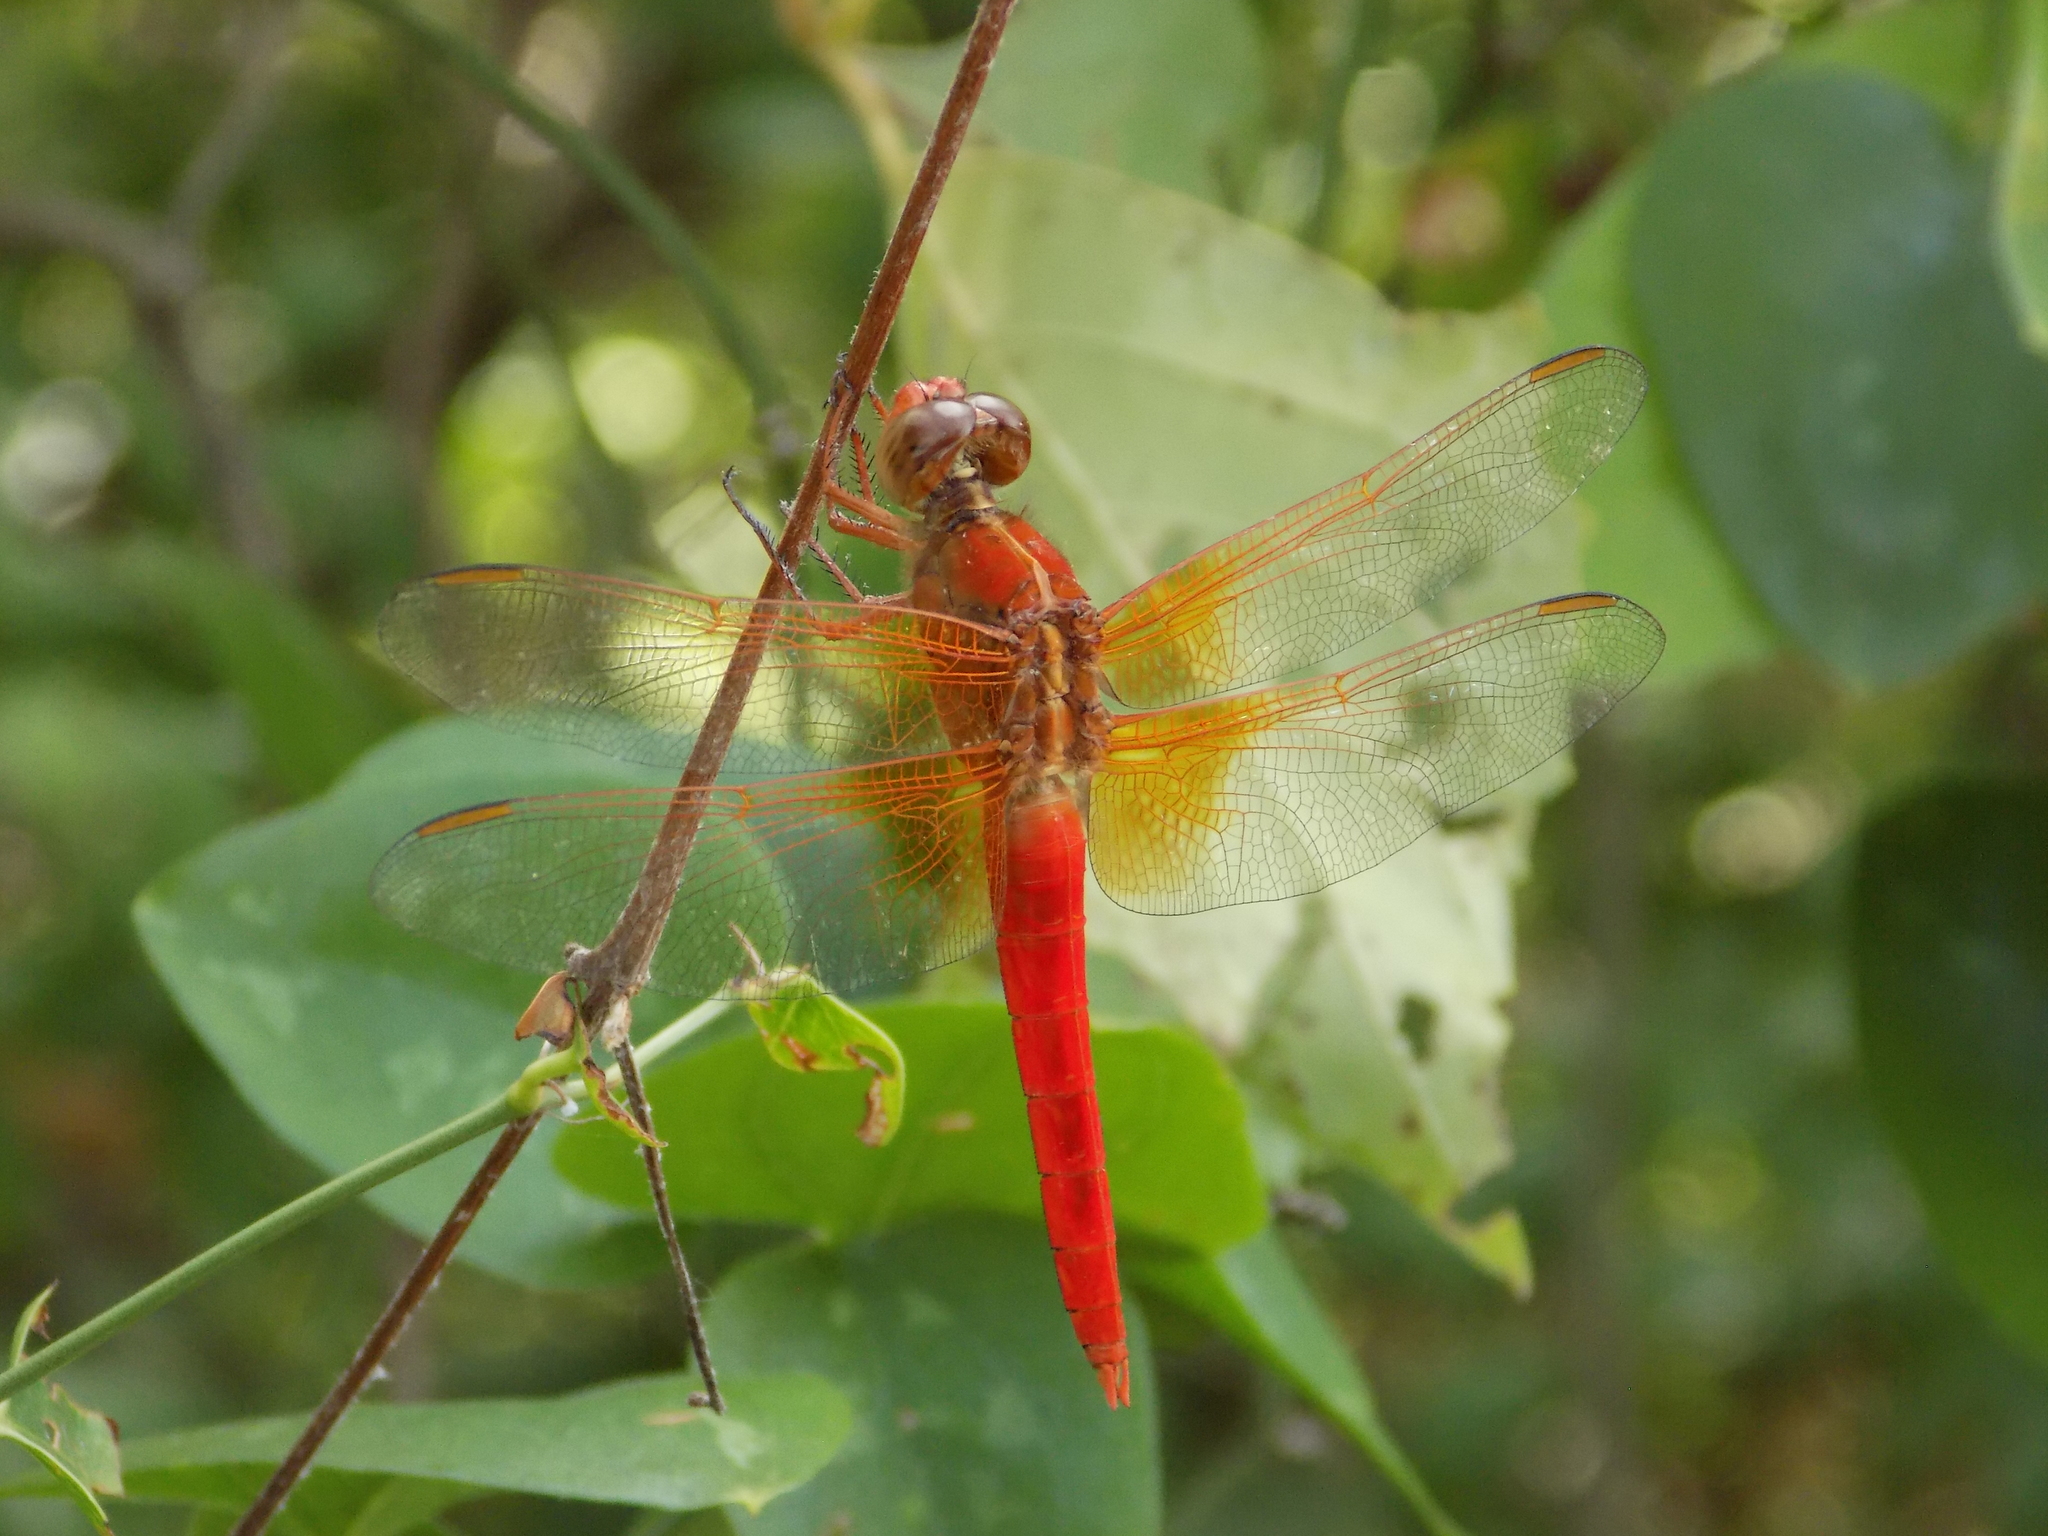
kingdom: Animalia
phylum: Arthropoda
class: Insecta
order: Odonata
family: Libellulidae
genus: Libellula
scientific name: Libellula croceipennis
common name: Neon skimmer
